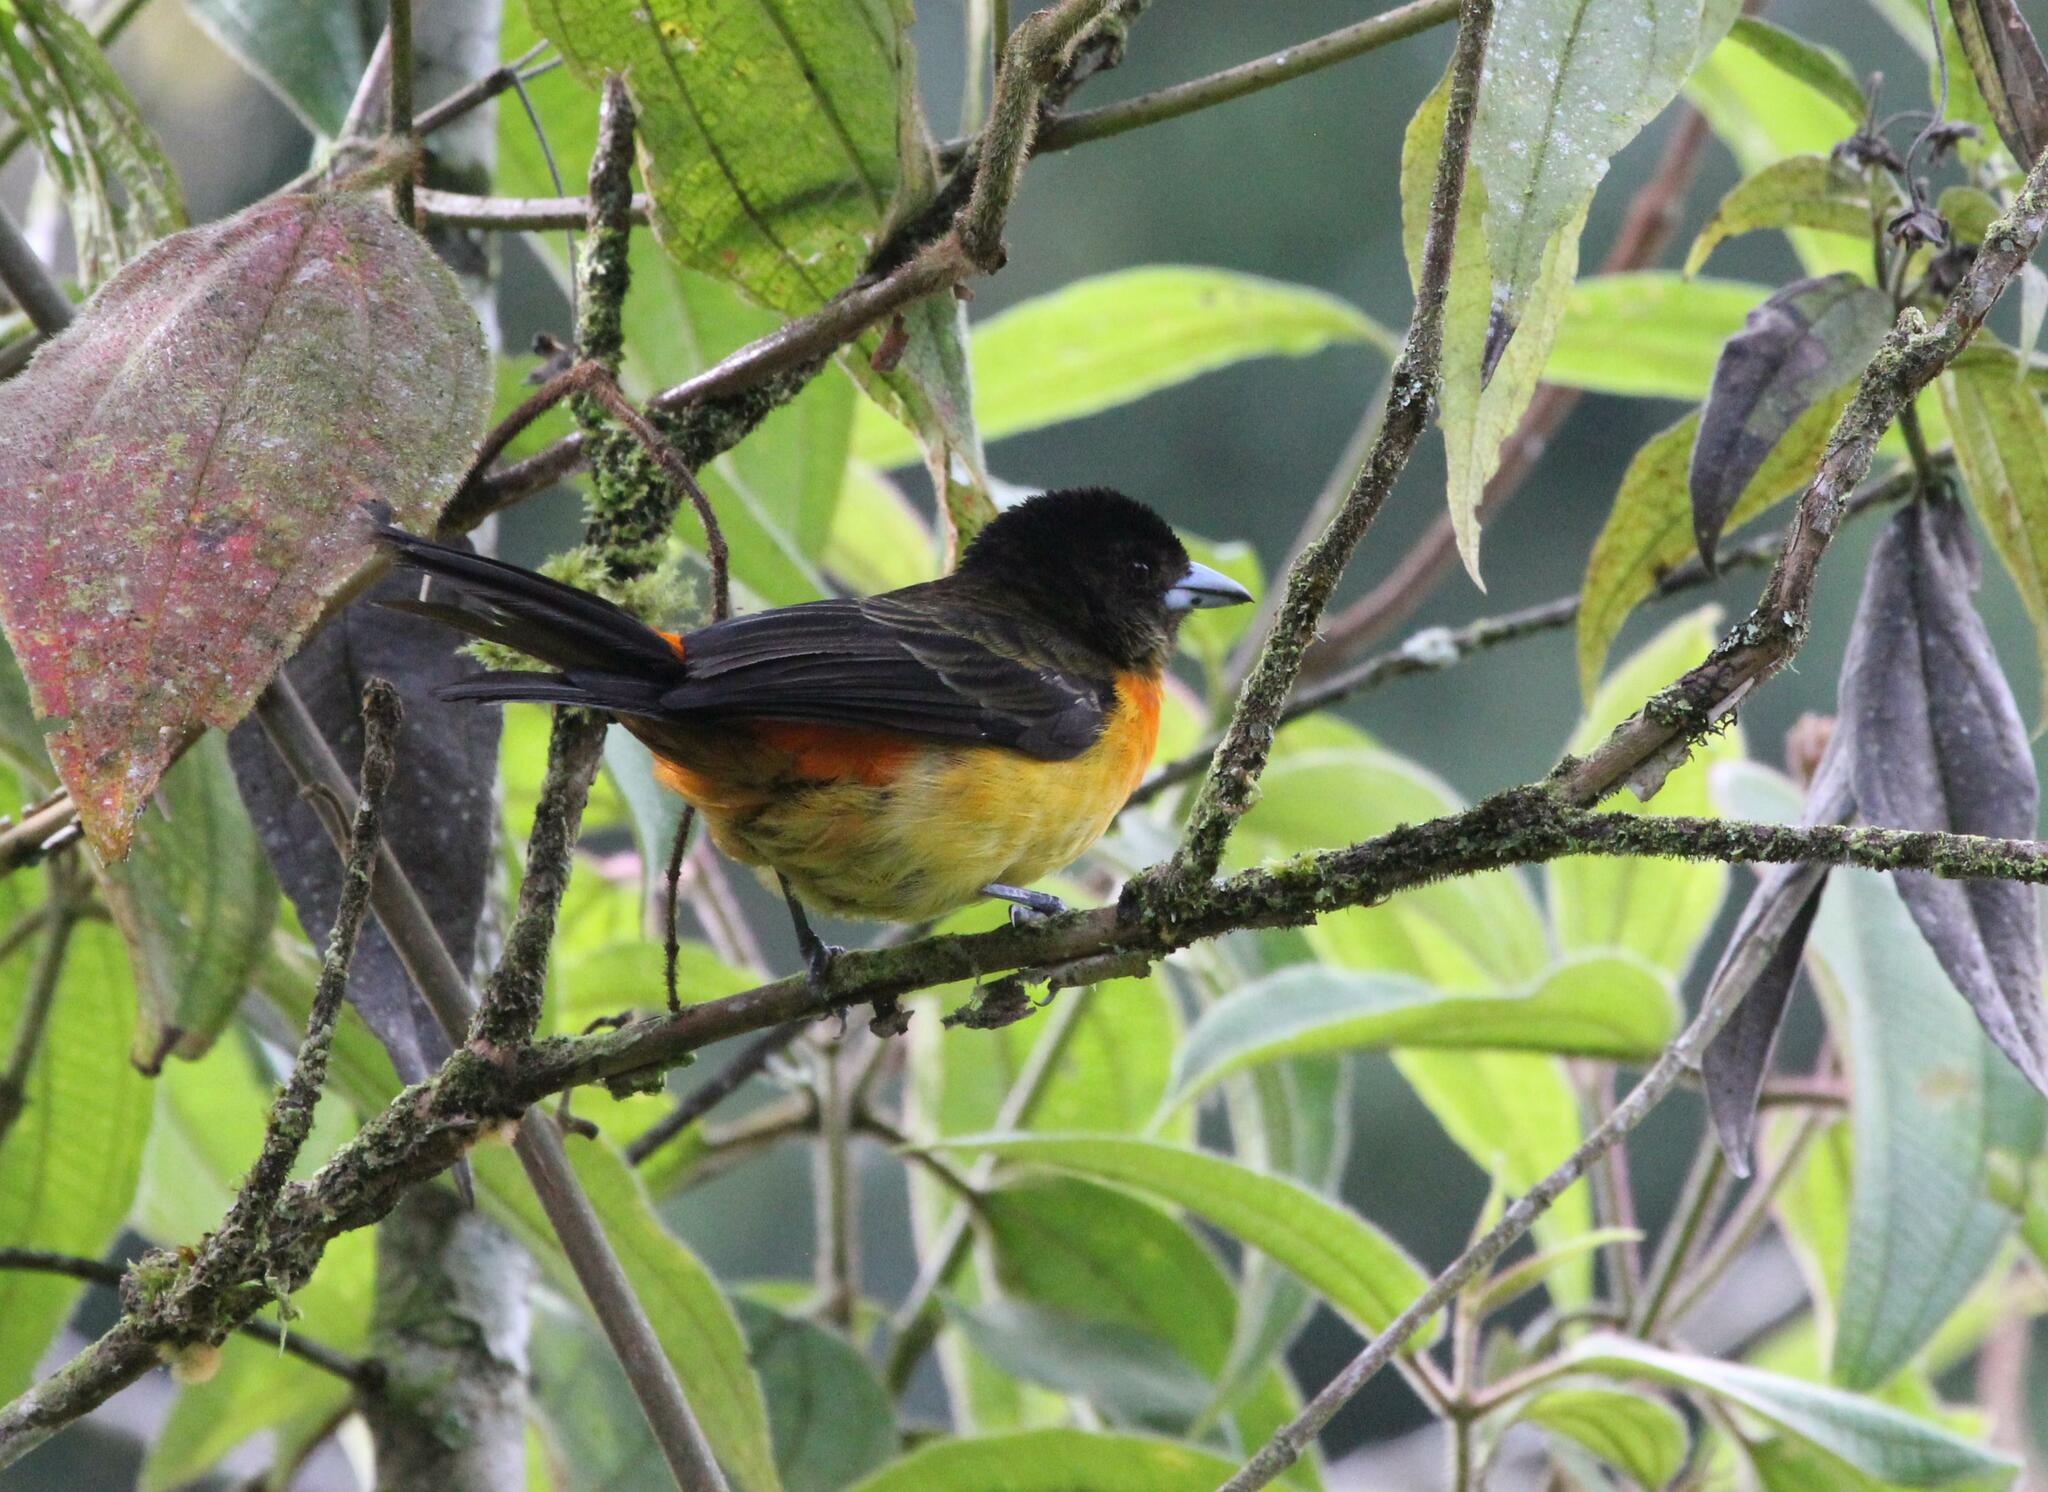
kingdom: Animalia
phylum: Chordata
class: Aves
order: Passeriformes
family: Thraupidae
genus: Ramphocelus
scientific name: Ramphocelus flammigerus
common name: Flame-rumped tanager
